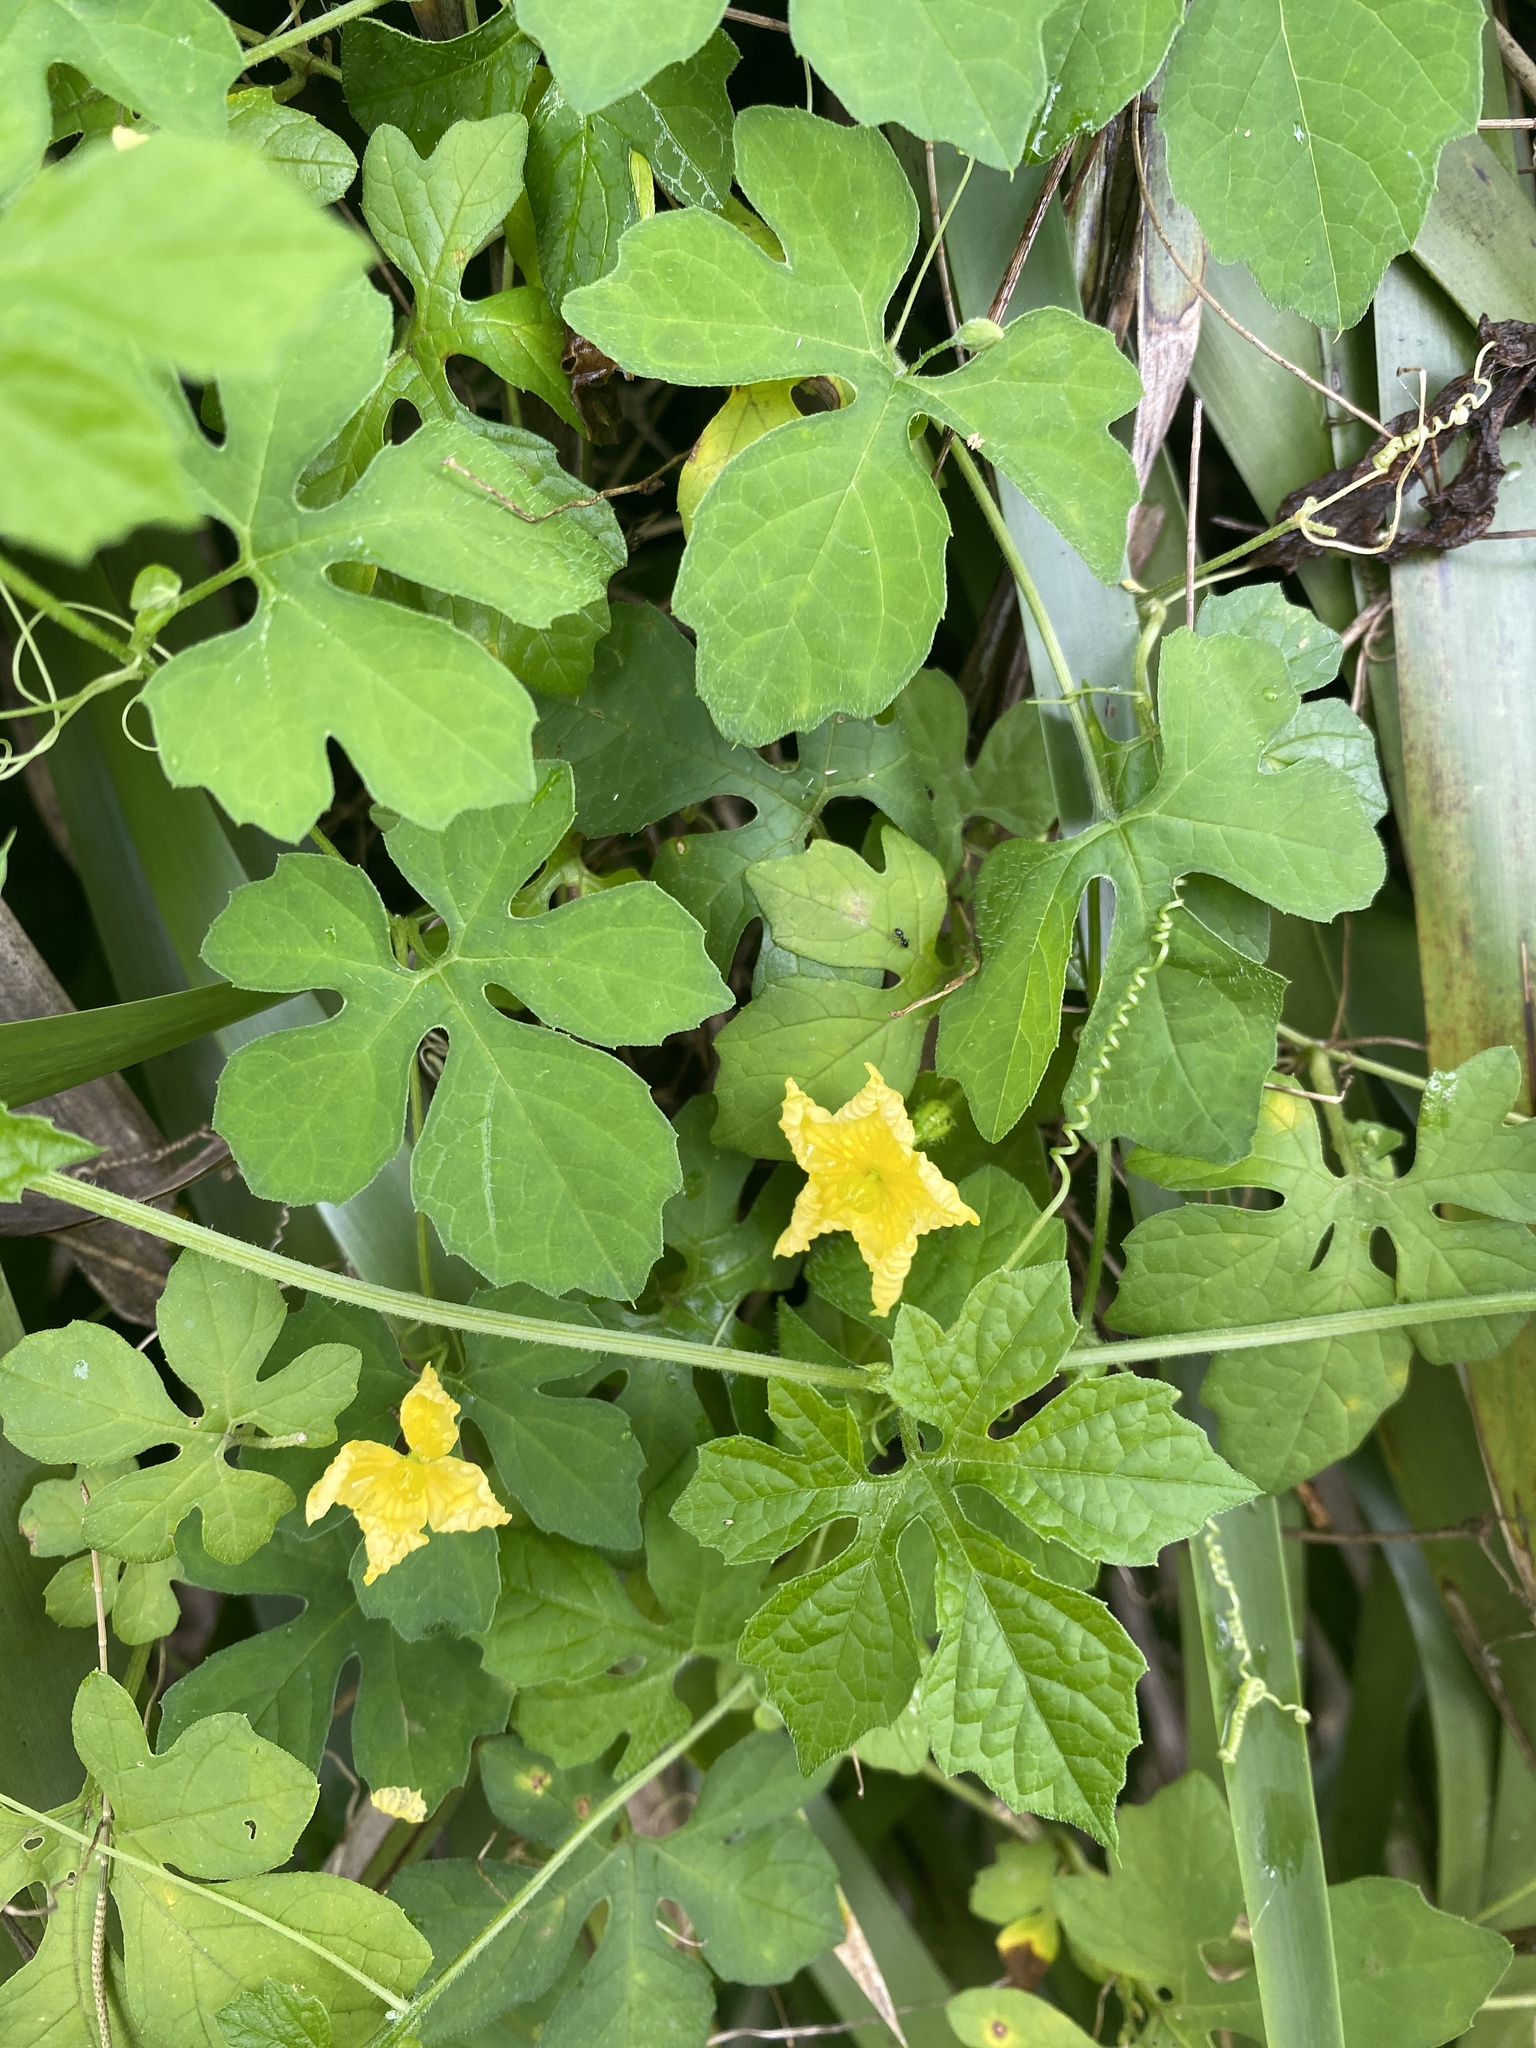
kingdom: Plantae
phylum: Tracheophyta
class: Magnoliopsida
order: Cucurbitales
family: Cucurbitaceae
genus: Momordica
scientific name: Momordica charantia
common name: Balsampear
